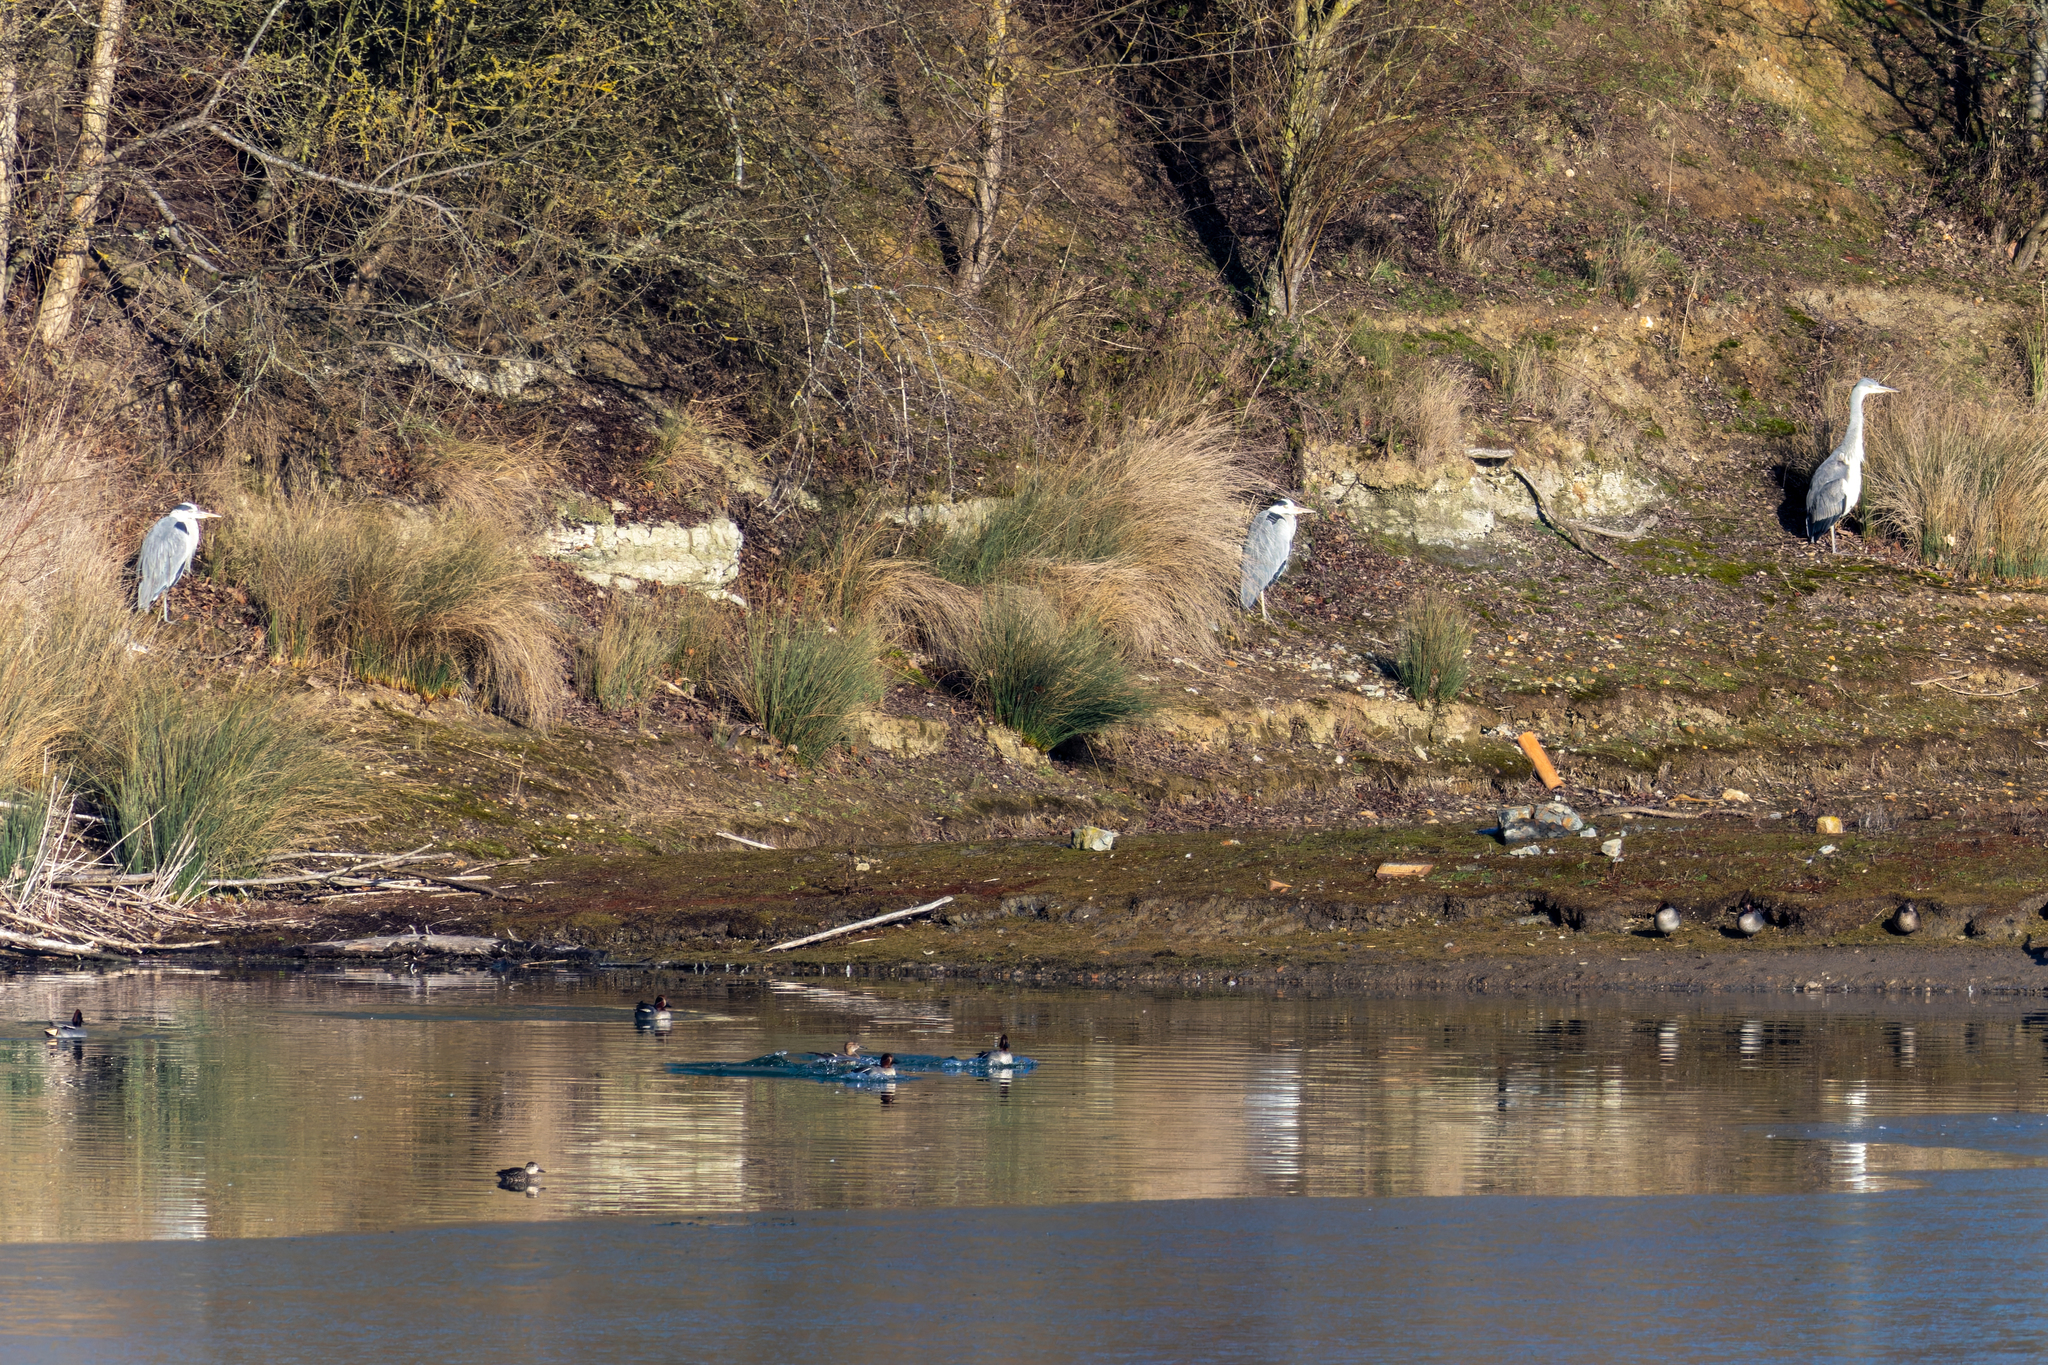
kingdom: Animalia
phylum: Chordata
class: Aves
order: Pelecaniformes
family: Ardeidae
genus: Ardea
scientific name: Ardea cinerea
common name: Grey heron
